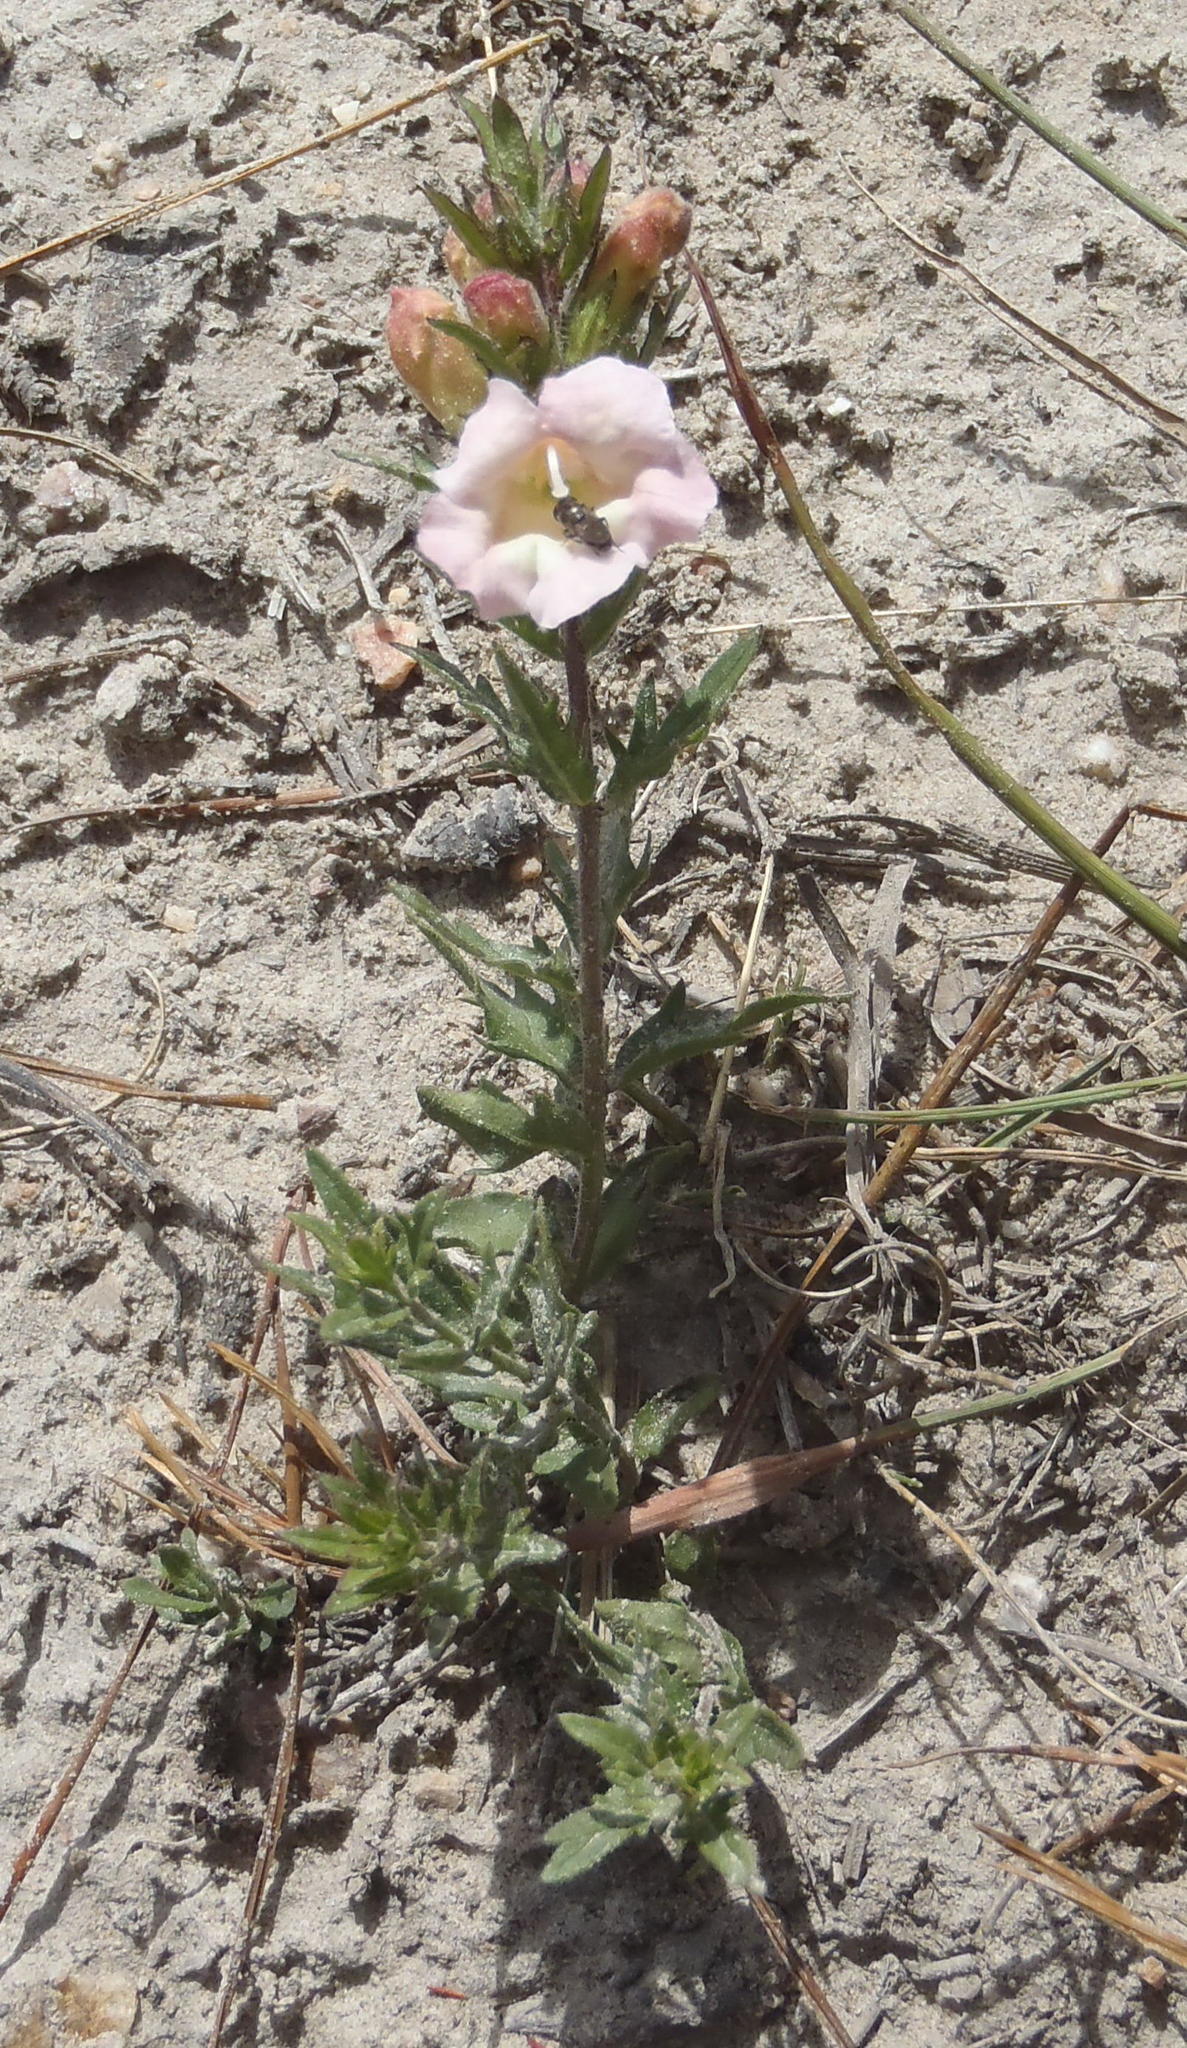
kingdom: Plantae
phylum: Tracheophyta
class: Magnoliopsida
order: Lamiales
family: Orobanchaceae
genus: Graderia
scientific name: Graderia scabra
